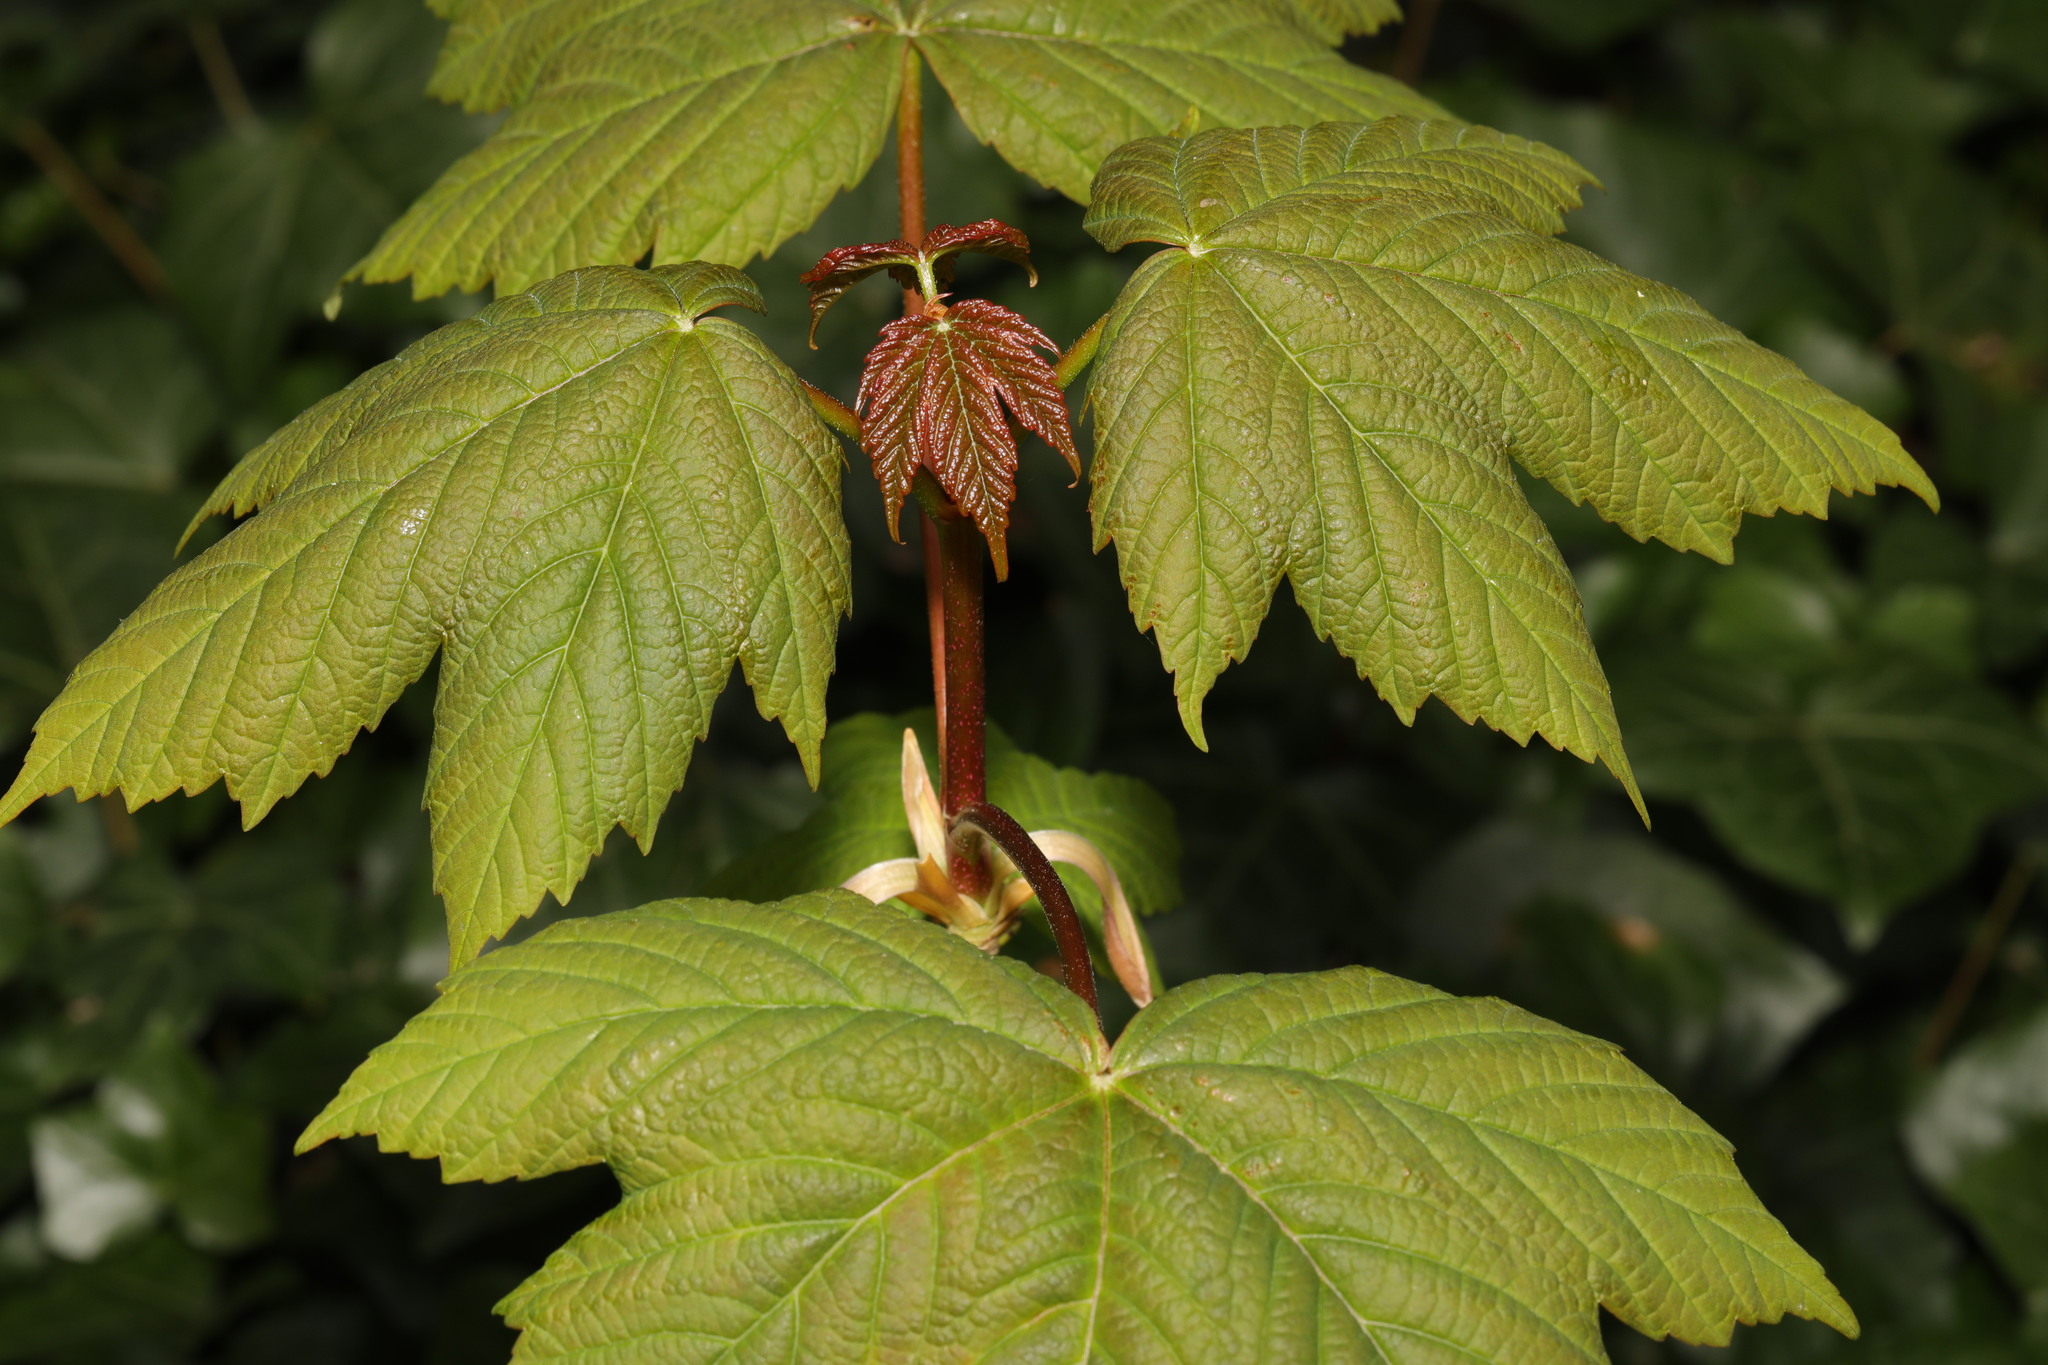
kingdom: Plantae
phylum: Tracheophyta
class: Magnoliopsida
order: Sapindales
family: Sapindaceae
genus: Acer
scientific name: Acer pseudoplatanus
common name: Sycamore
